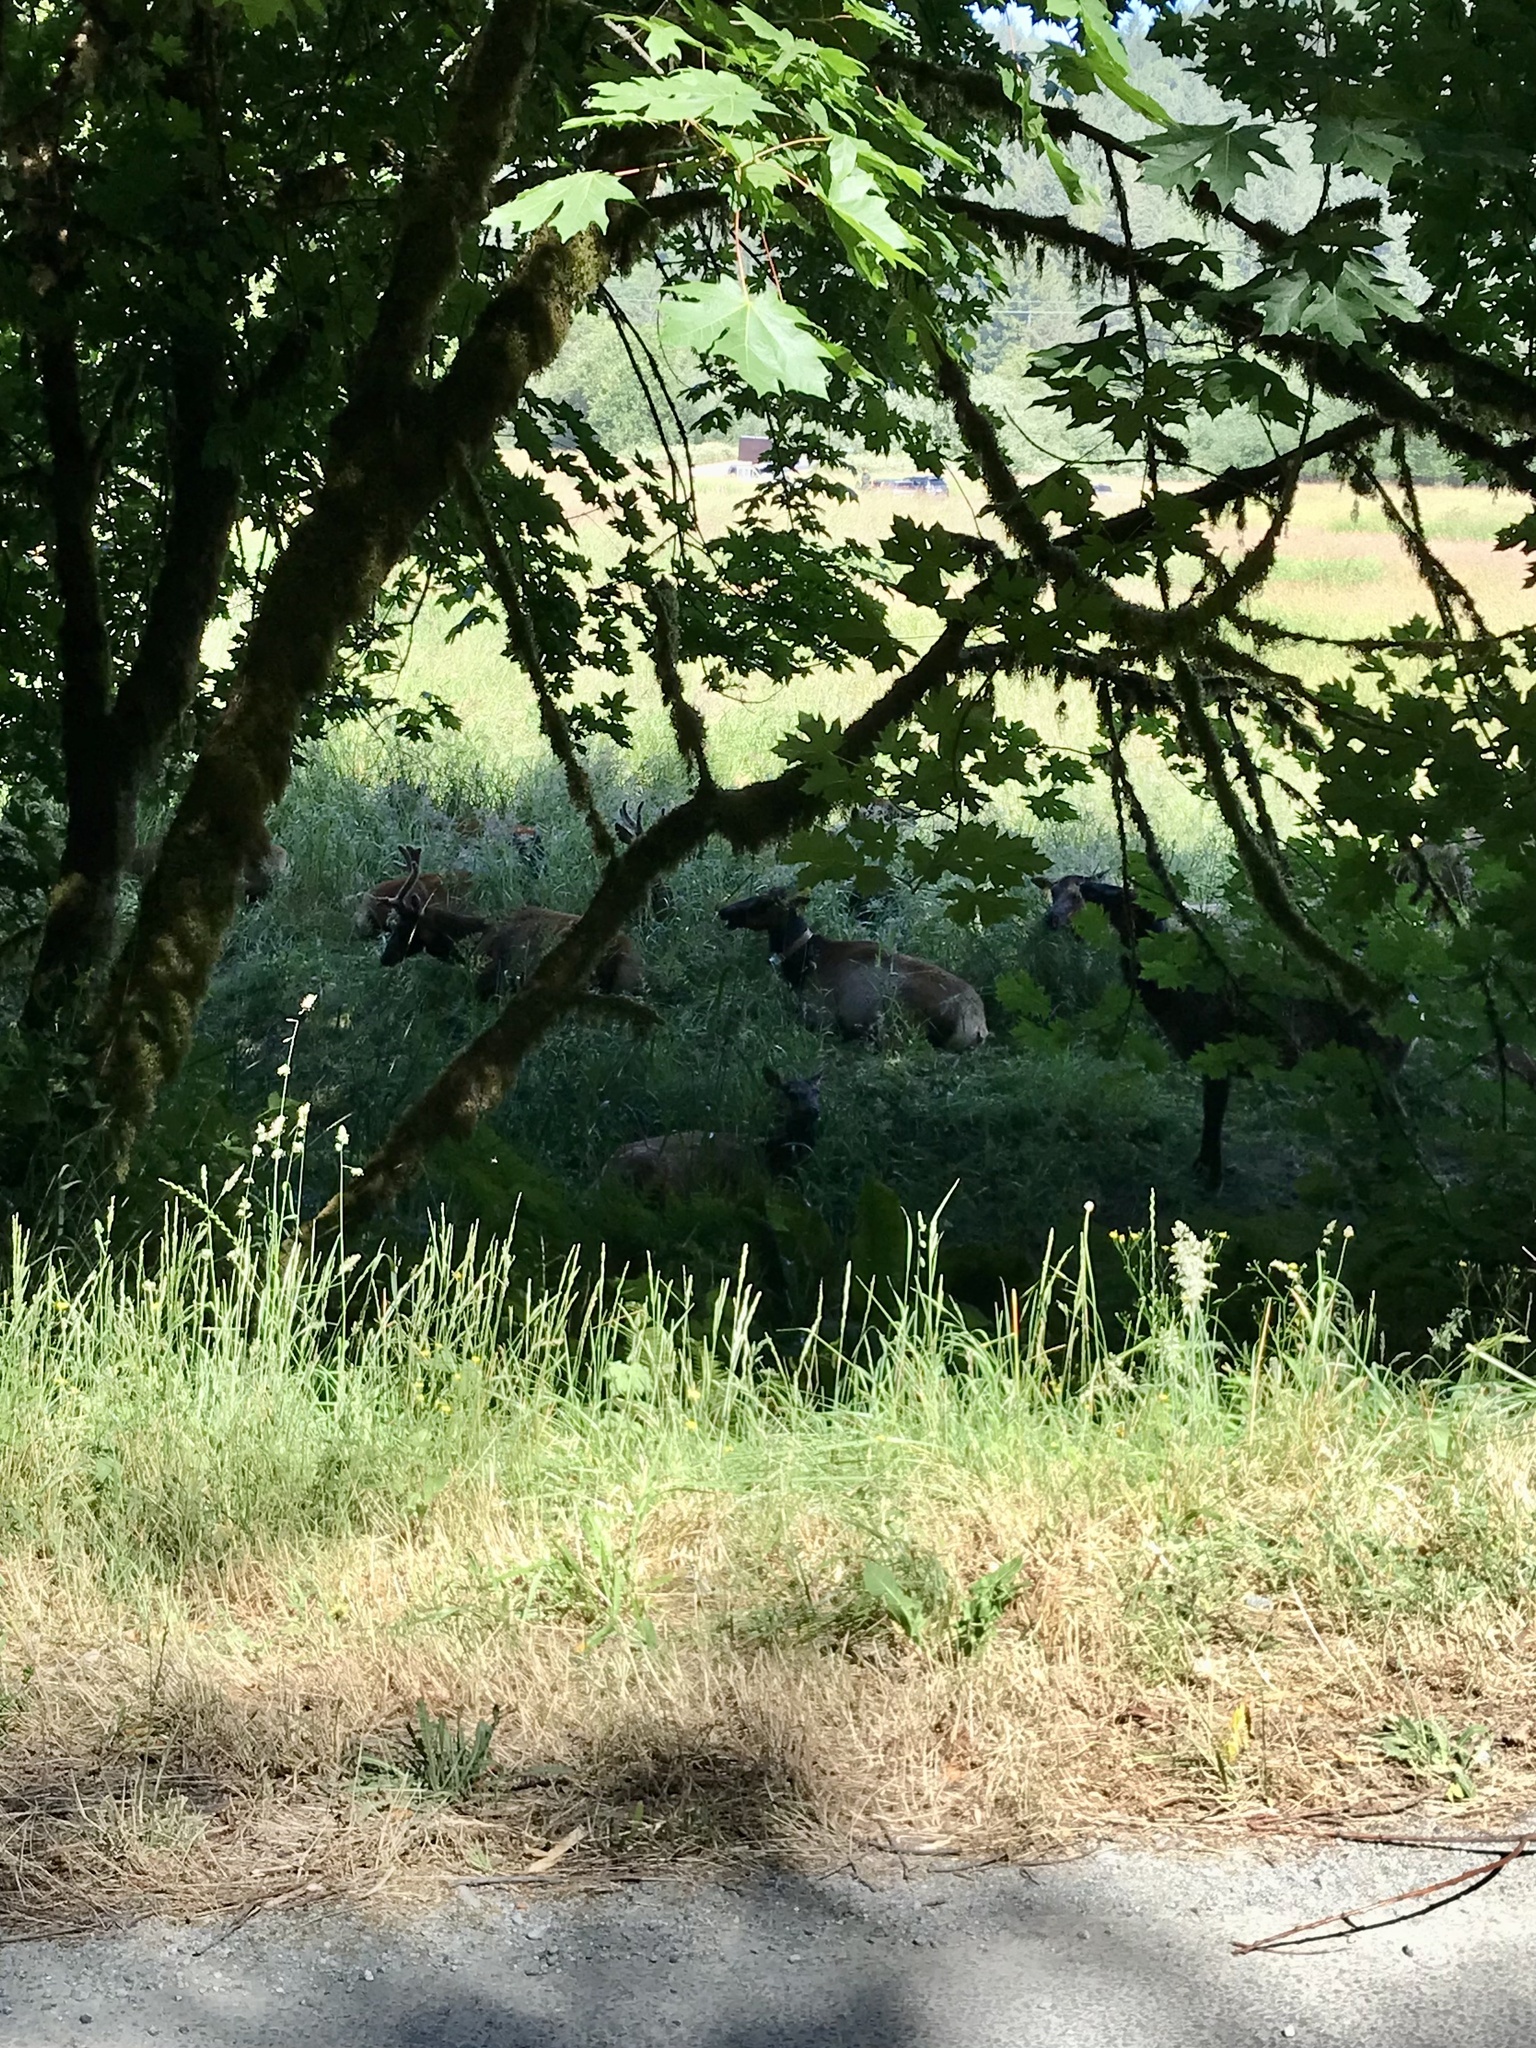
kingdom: Animalia
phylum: Chordata
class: Mammalia
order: Artiodactyla
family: Cervidae
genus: Cervus
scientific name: Cervus elaphus
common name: Red deer
